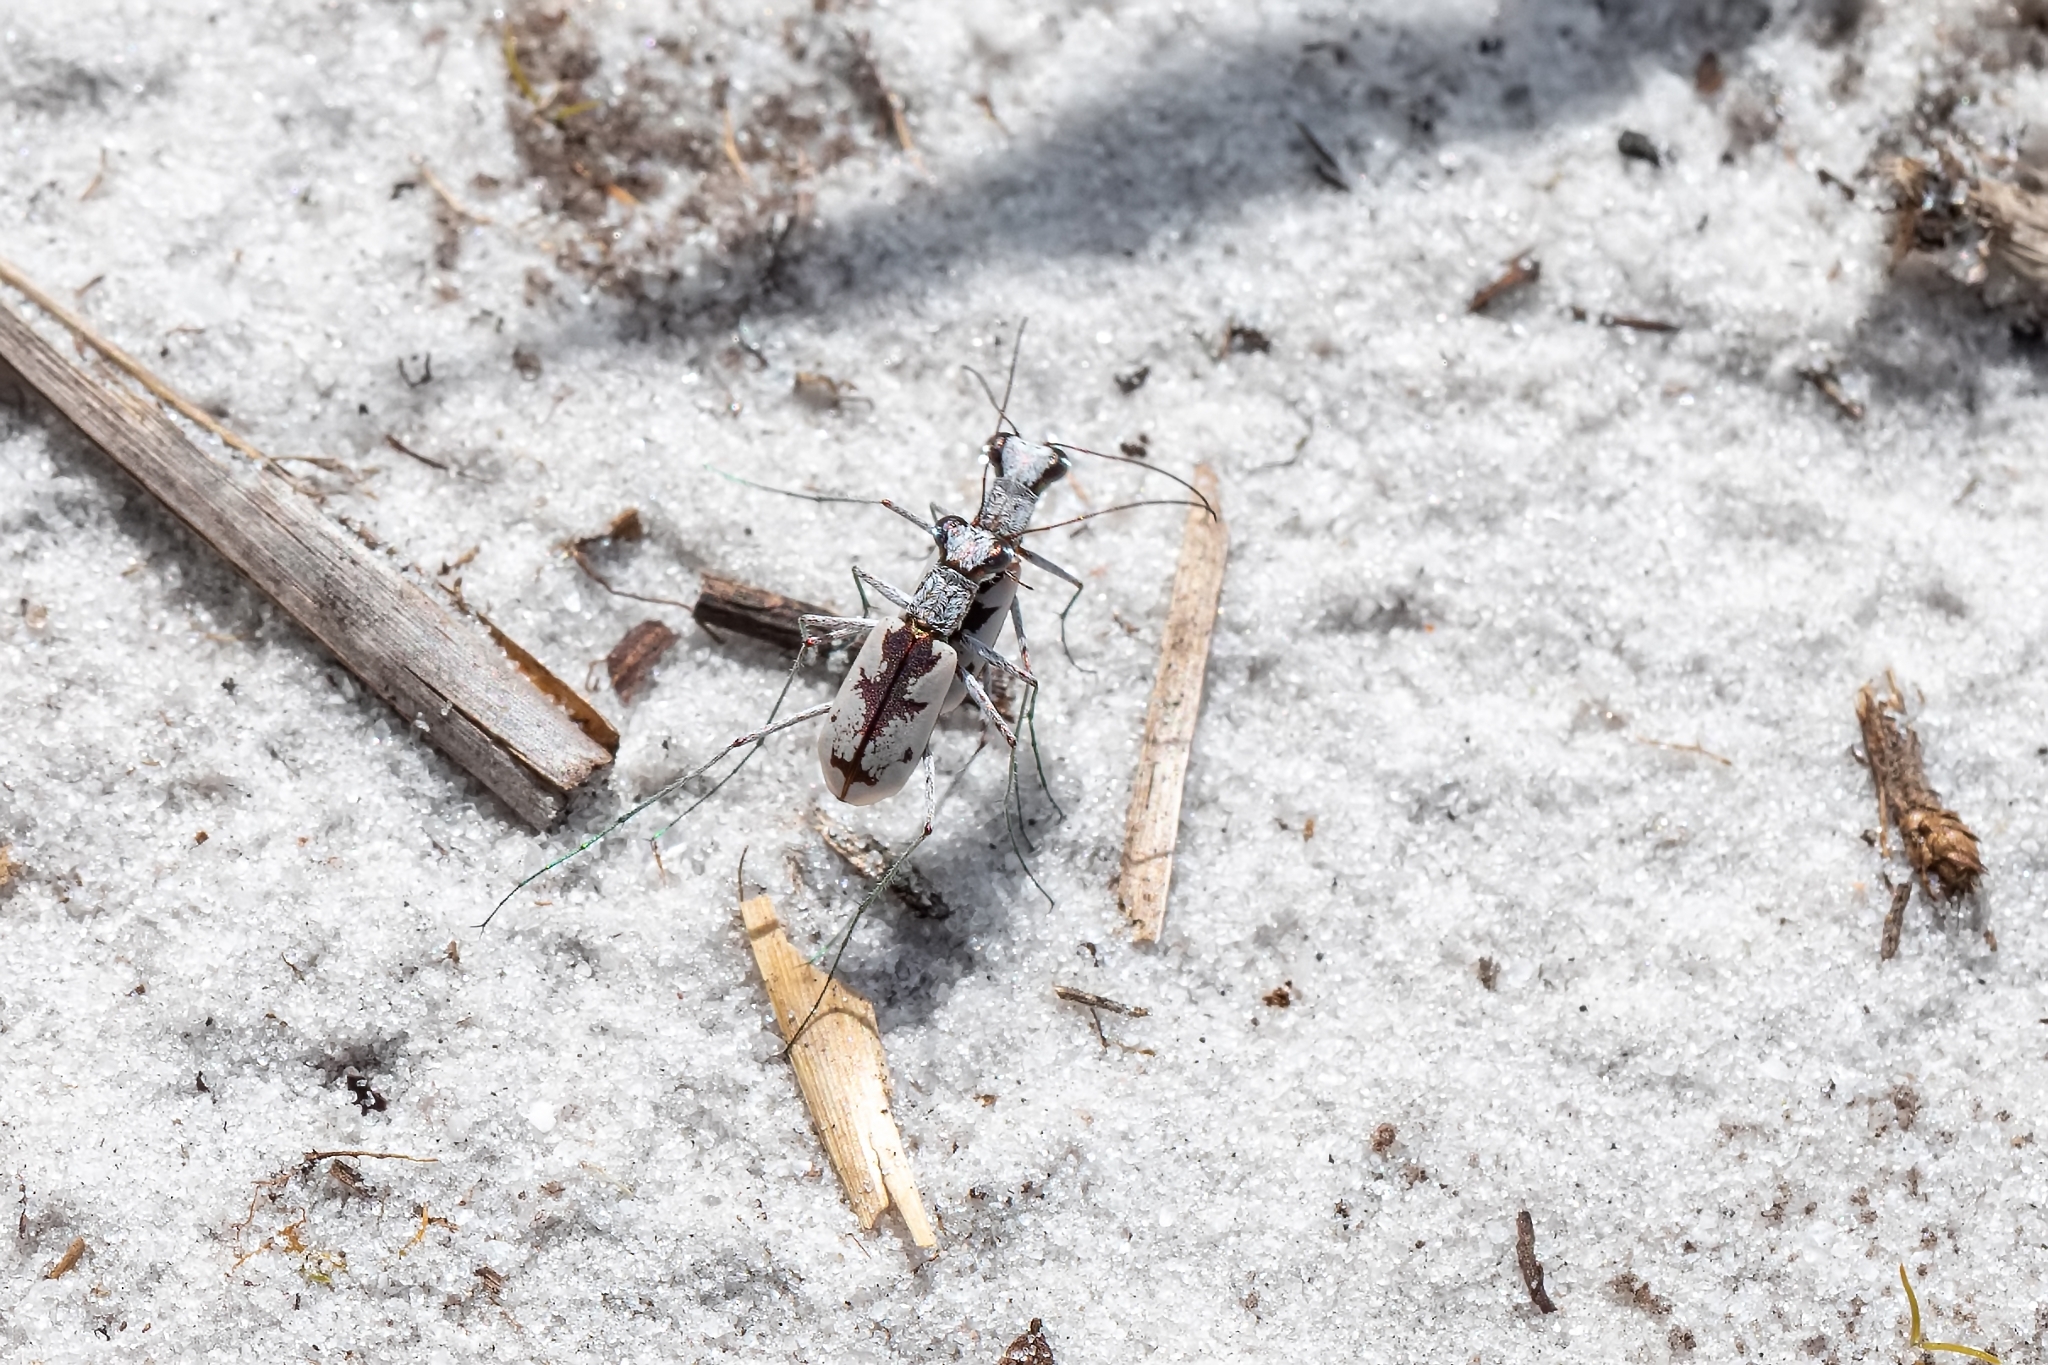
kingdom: Animalia
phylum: Arthropoda
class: Insecta
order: Coleoptera
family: Carabidae
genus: Ellipsoptera
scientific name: Ellipsoptera hirtilabris
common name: Moustached tiger beetle
